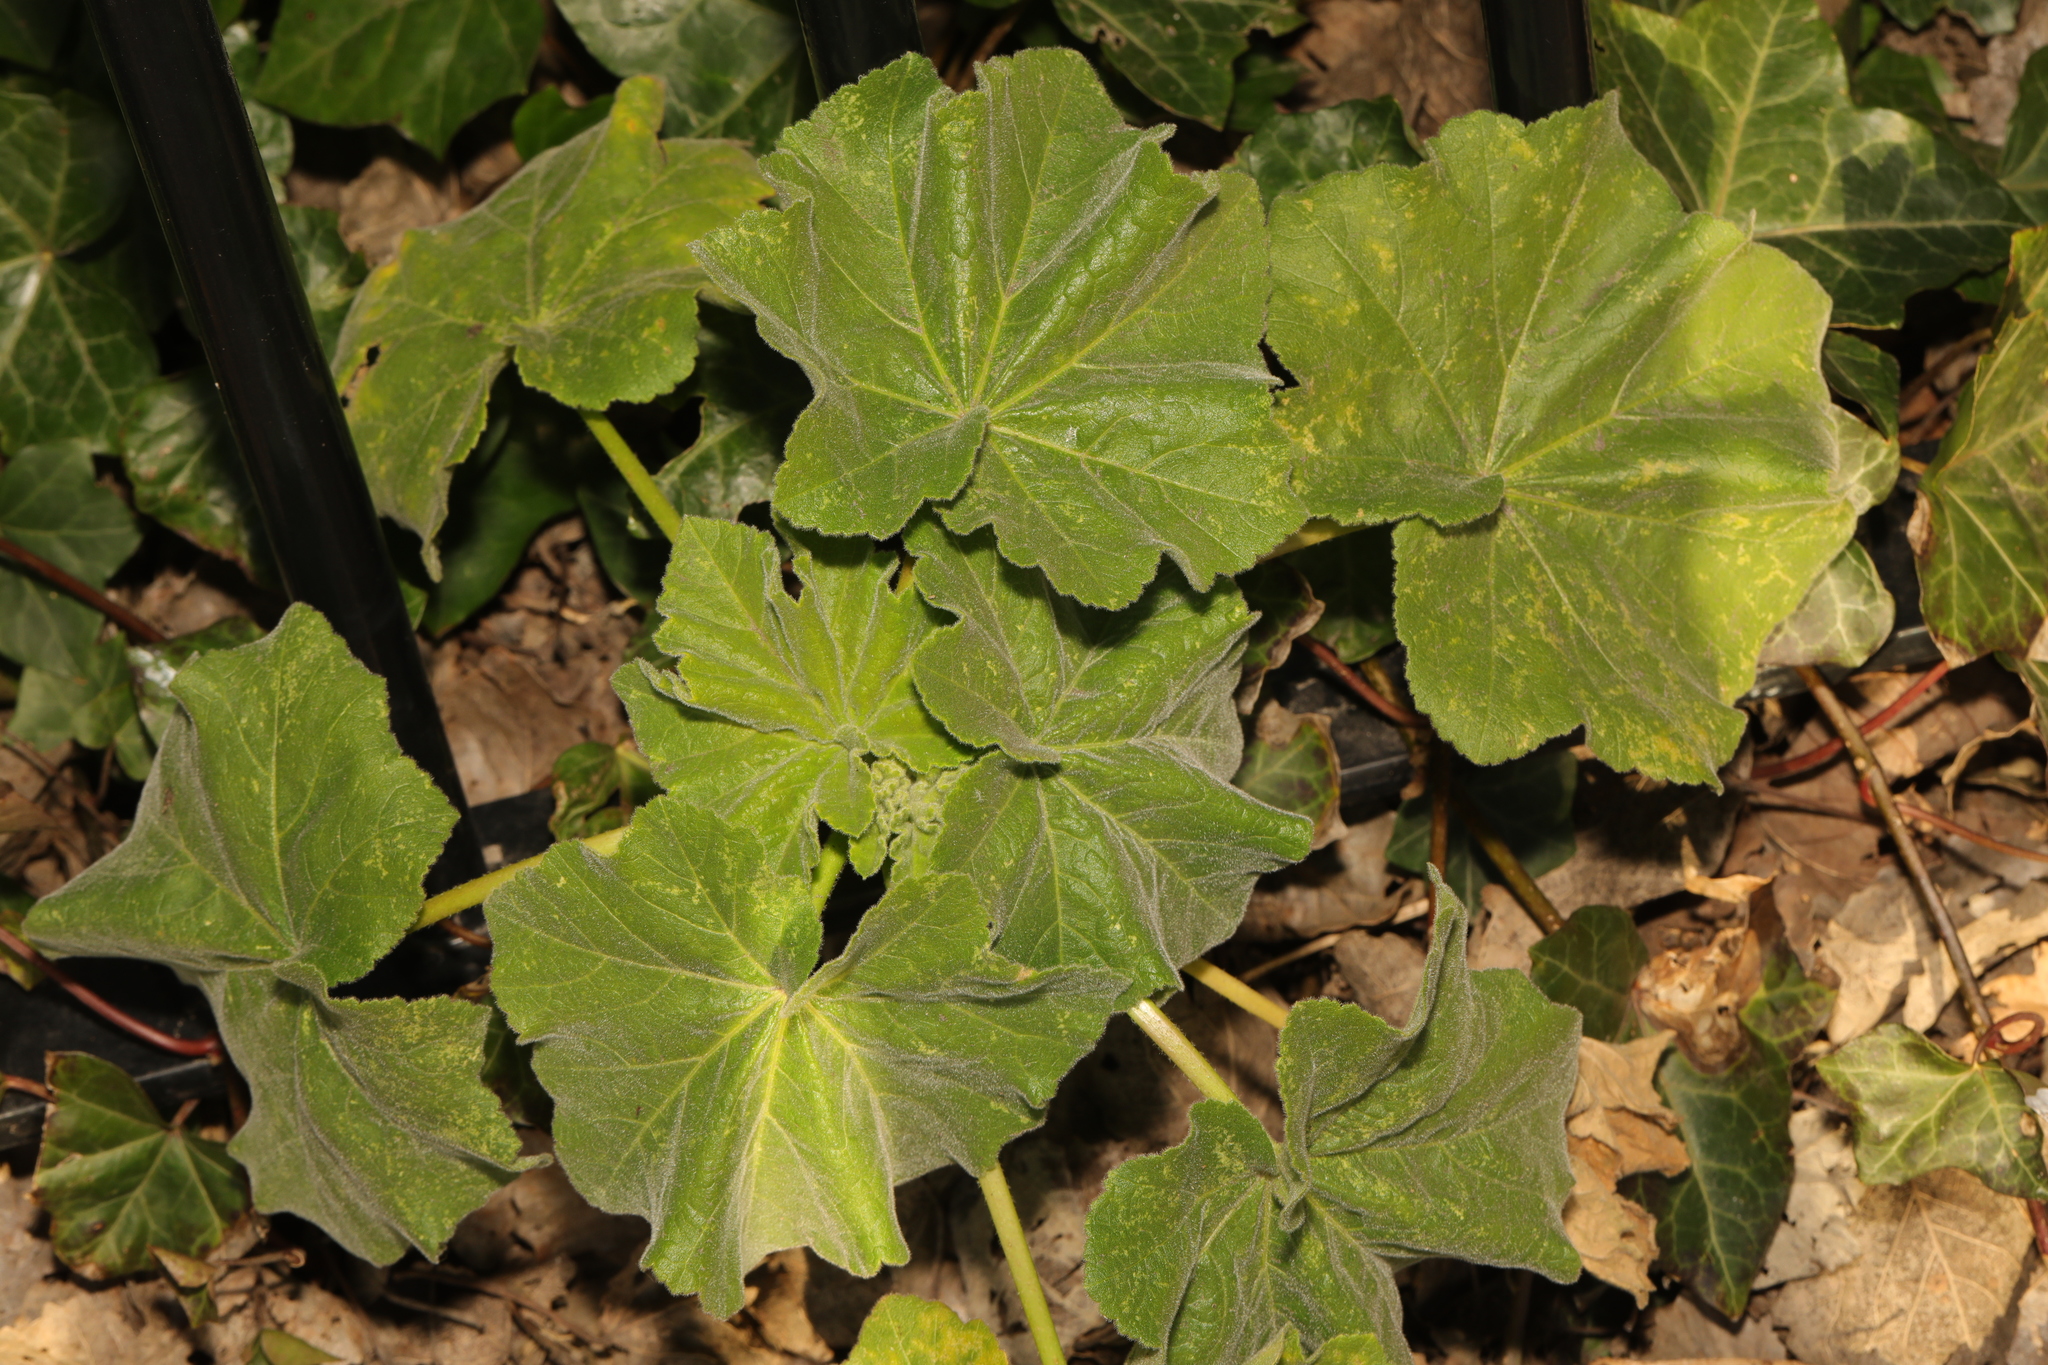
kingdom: Plantae
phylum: Tracheophyta
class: Magnoliopsida
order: Malvales
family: Malvaceae
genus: Malva
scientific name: Malva arborea
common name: Tree mallow
